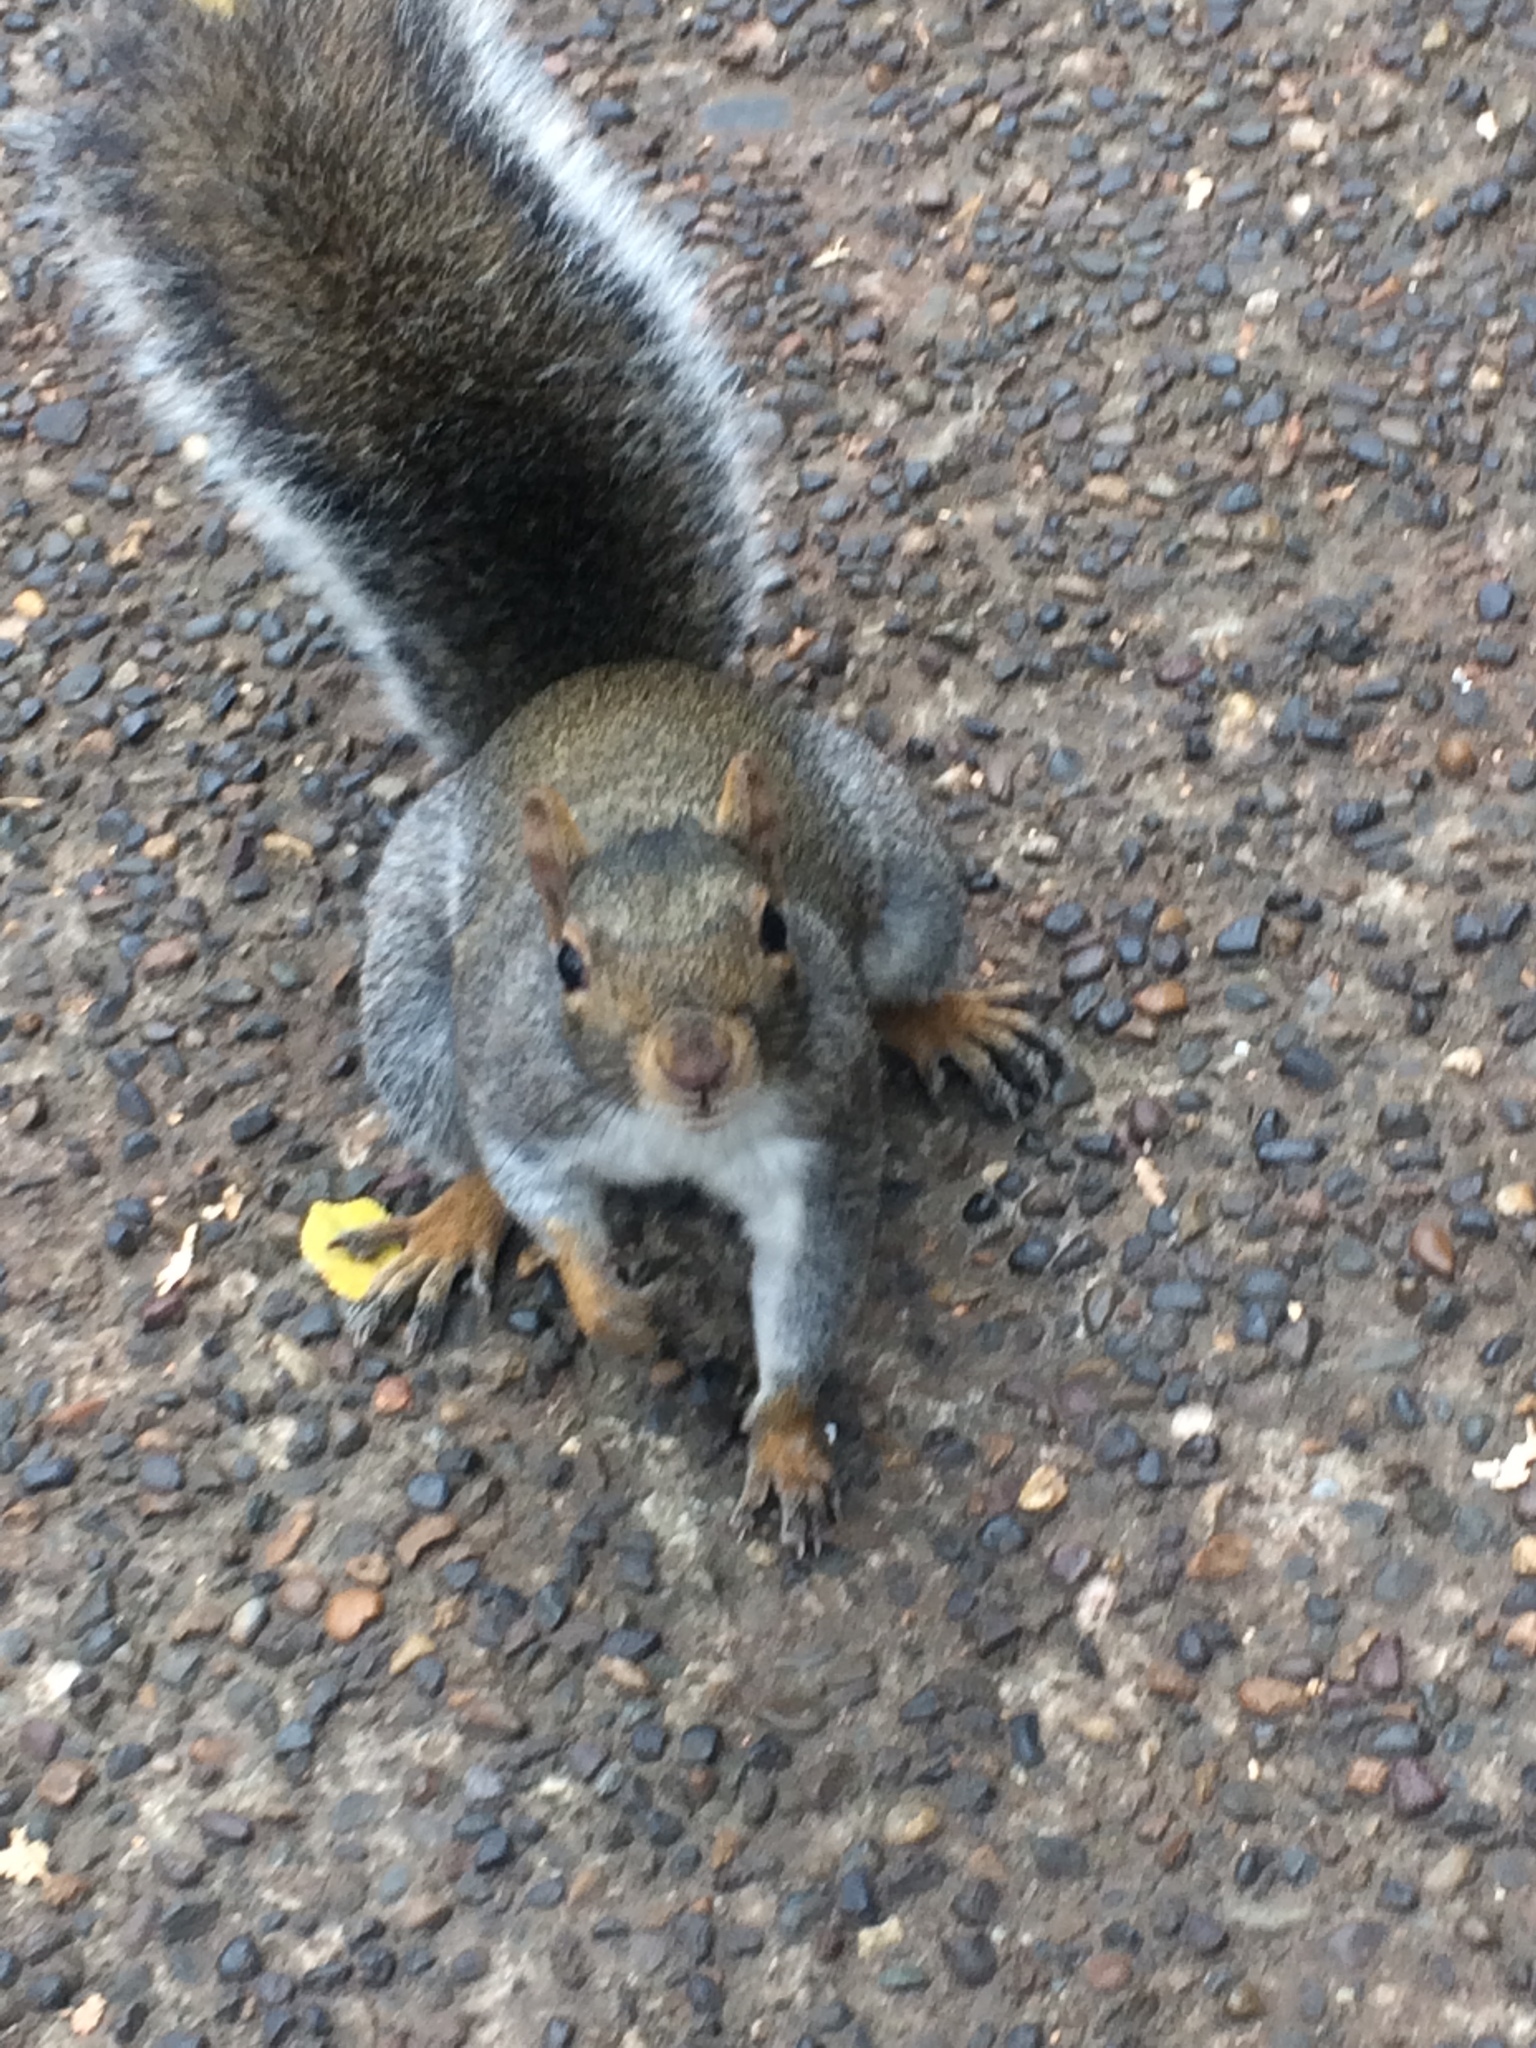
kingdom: Animalia
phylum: Chordata
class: Mammalia
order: Rodentia
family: Sciuridae
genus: Sciurus
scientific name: Sciurus carolinensis
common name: Eastern gray squirrel
